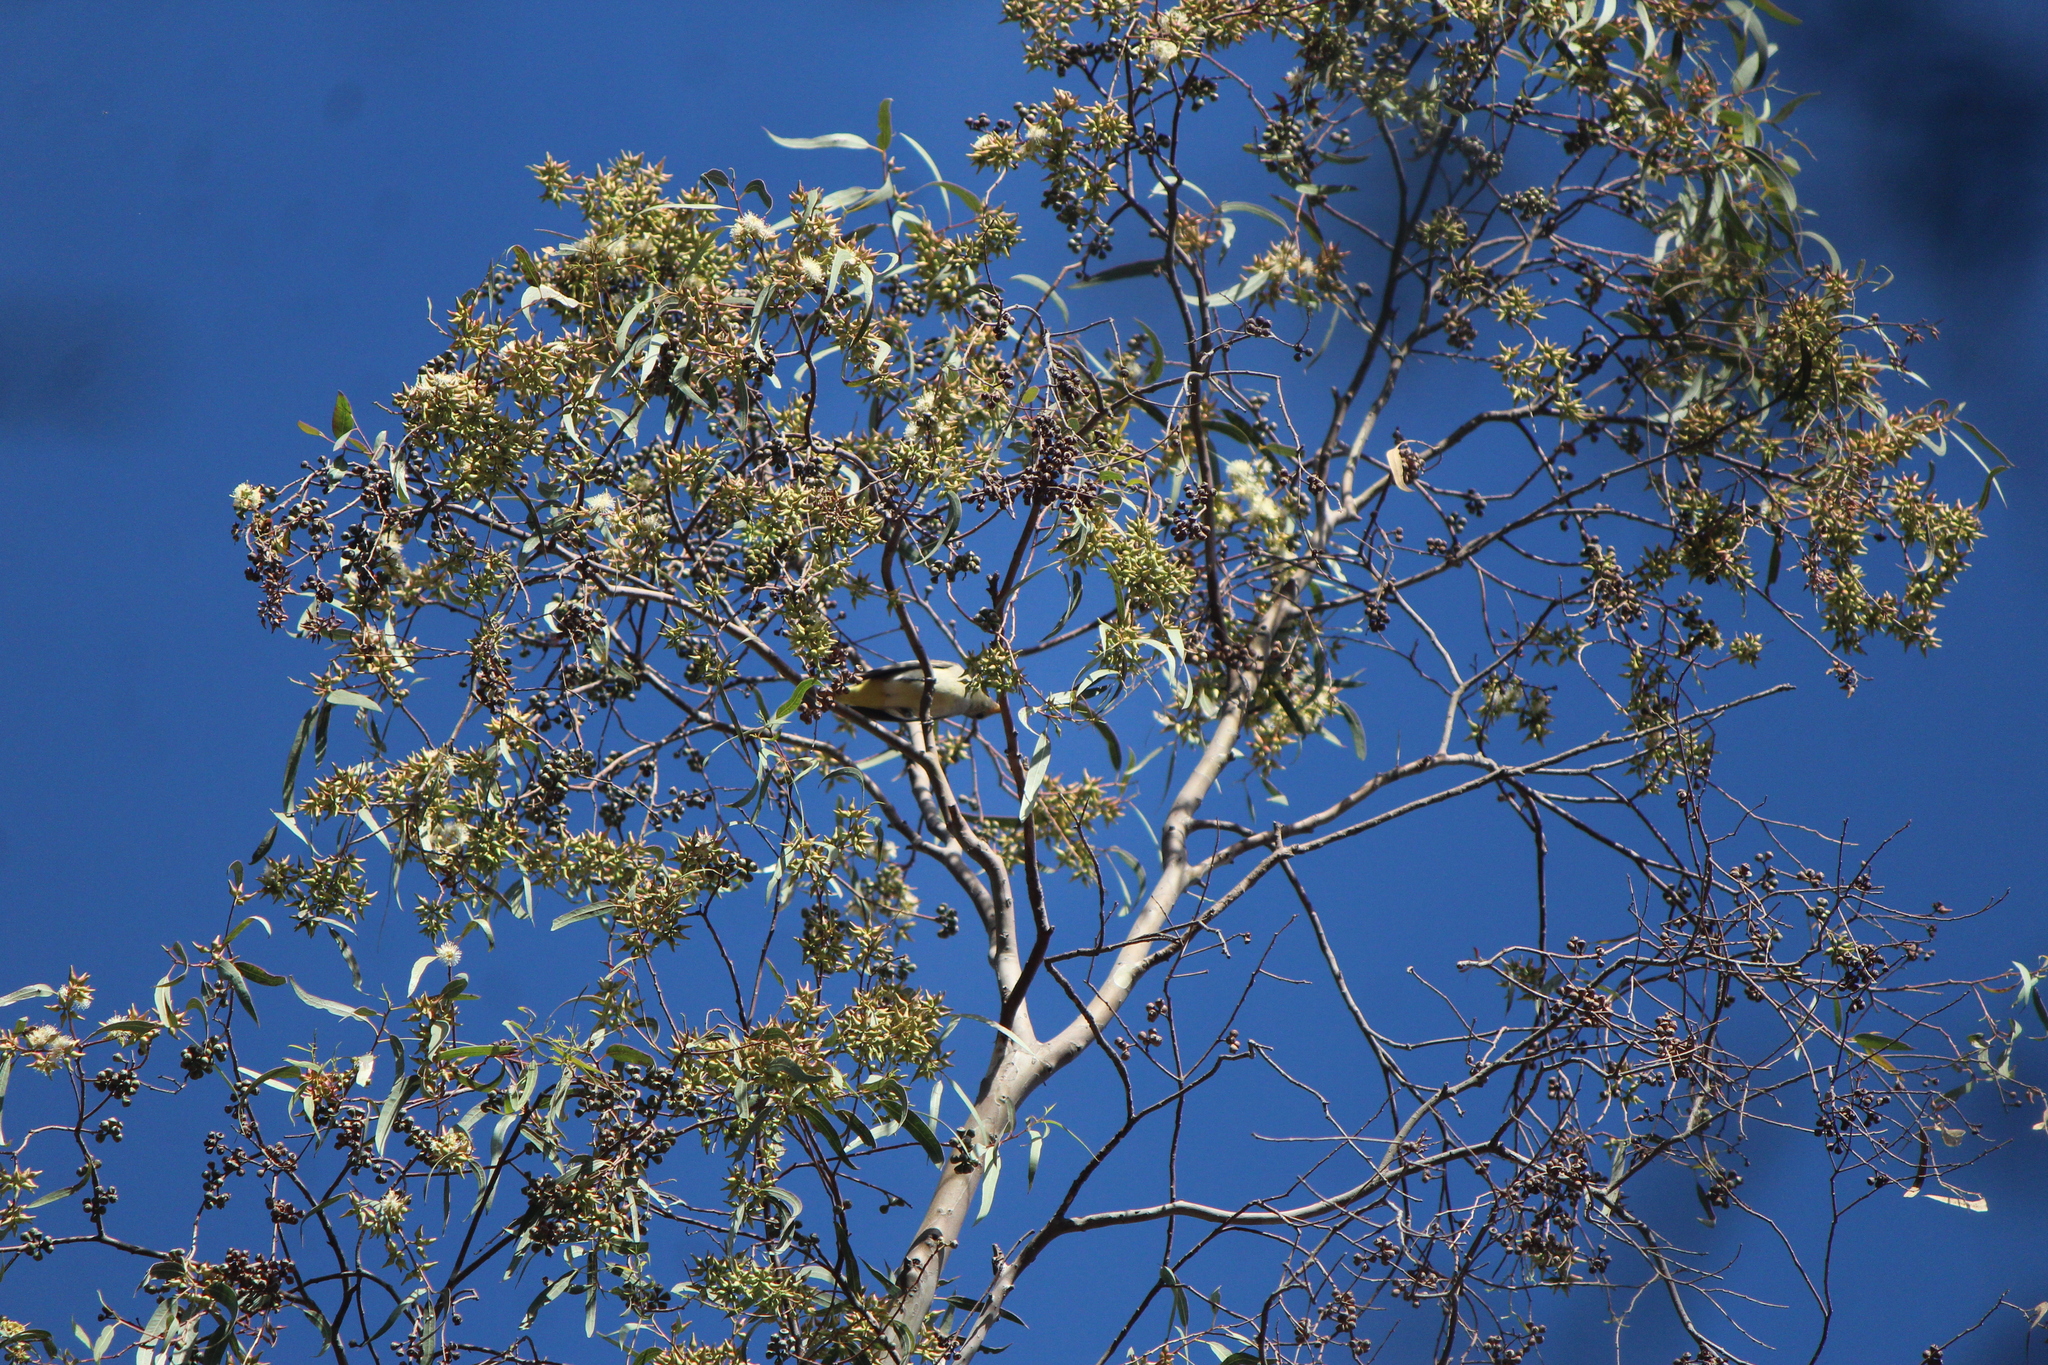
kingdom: Animalia
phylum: Chordata
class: Aves
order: Passeriformes
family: Cardinalidae
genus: Piranga
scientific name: Piranga ludoviciana
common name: Western tanager
